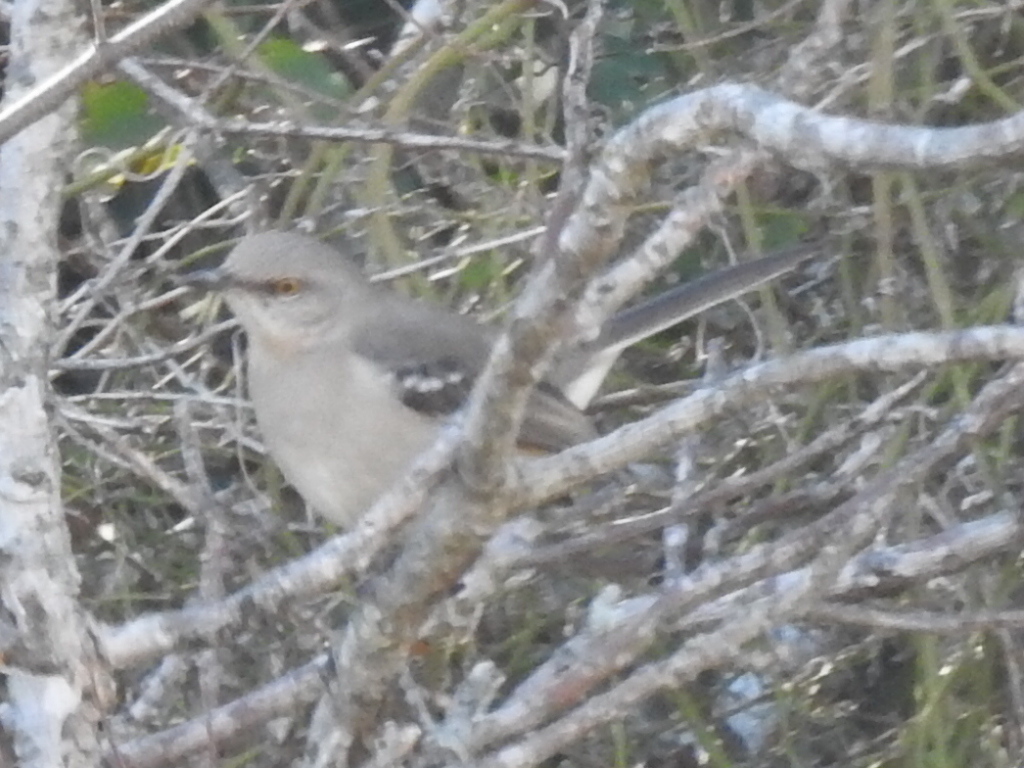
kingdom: Animalia
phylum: Chordata
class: Aves
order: Passeriformes
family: Mimidae
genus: Mimus
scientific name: Mimus polyglottos
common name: Northern mockingbird
